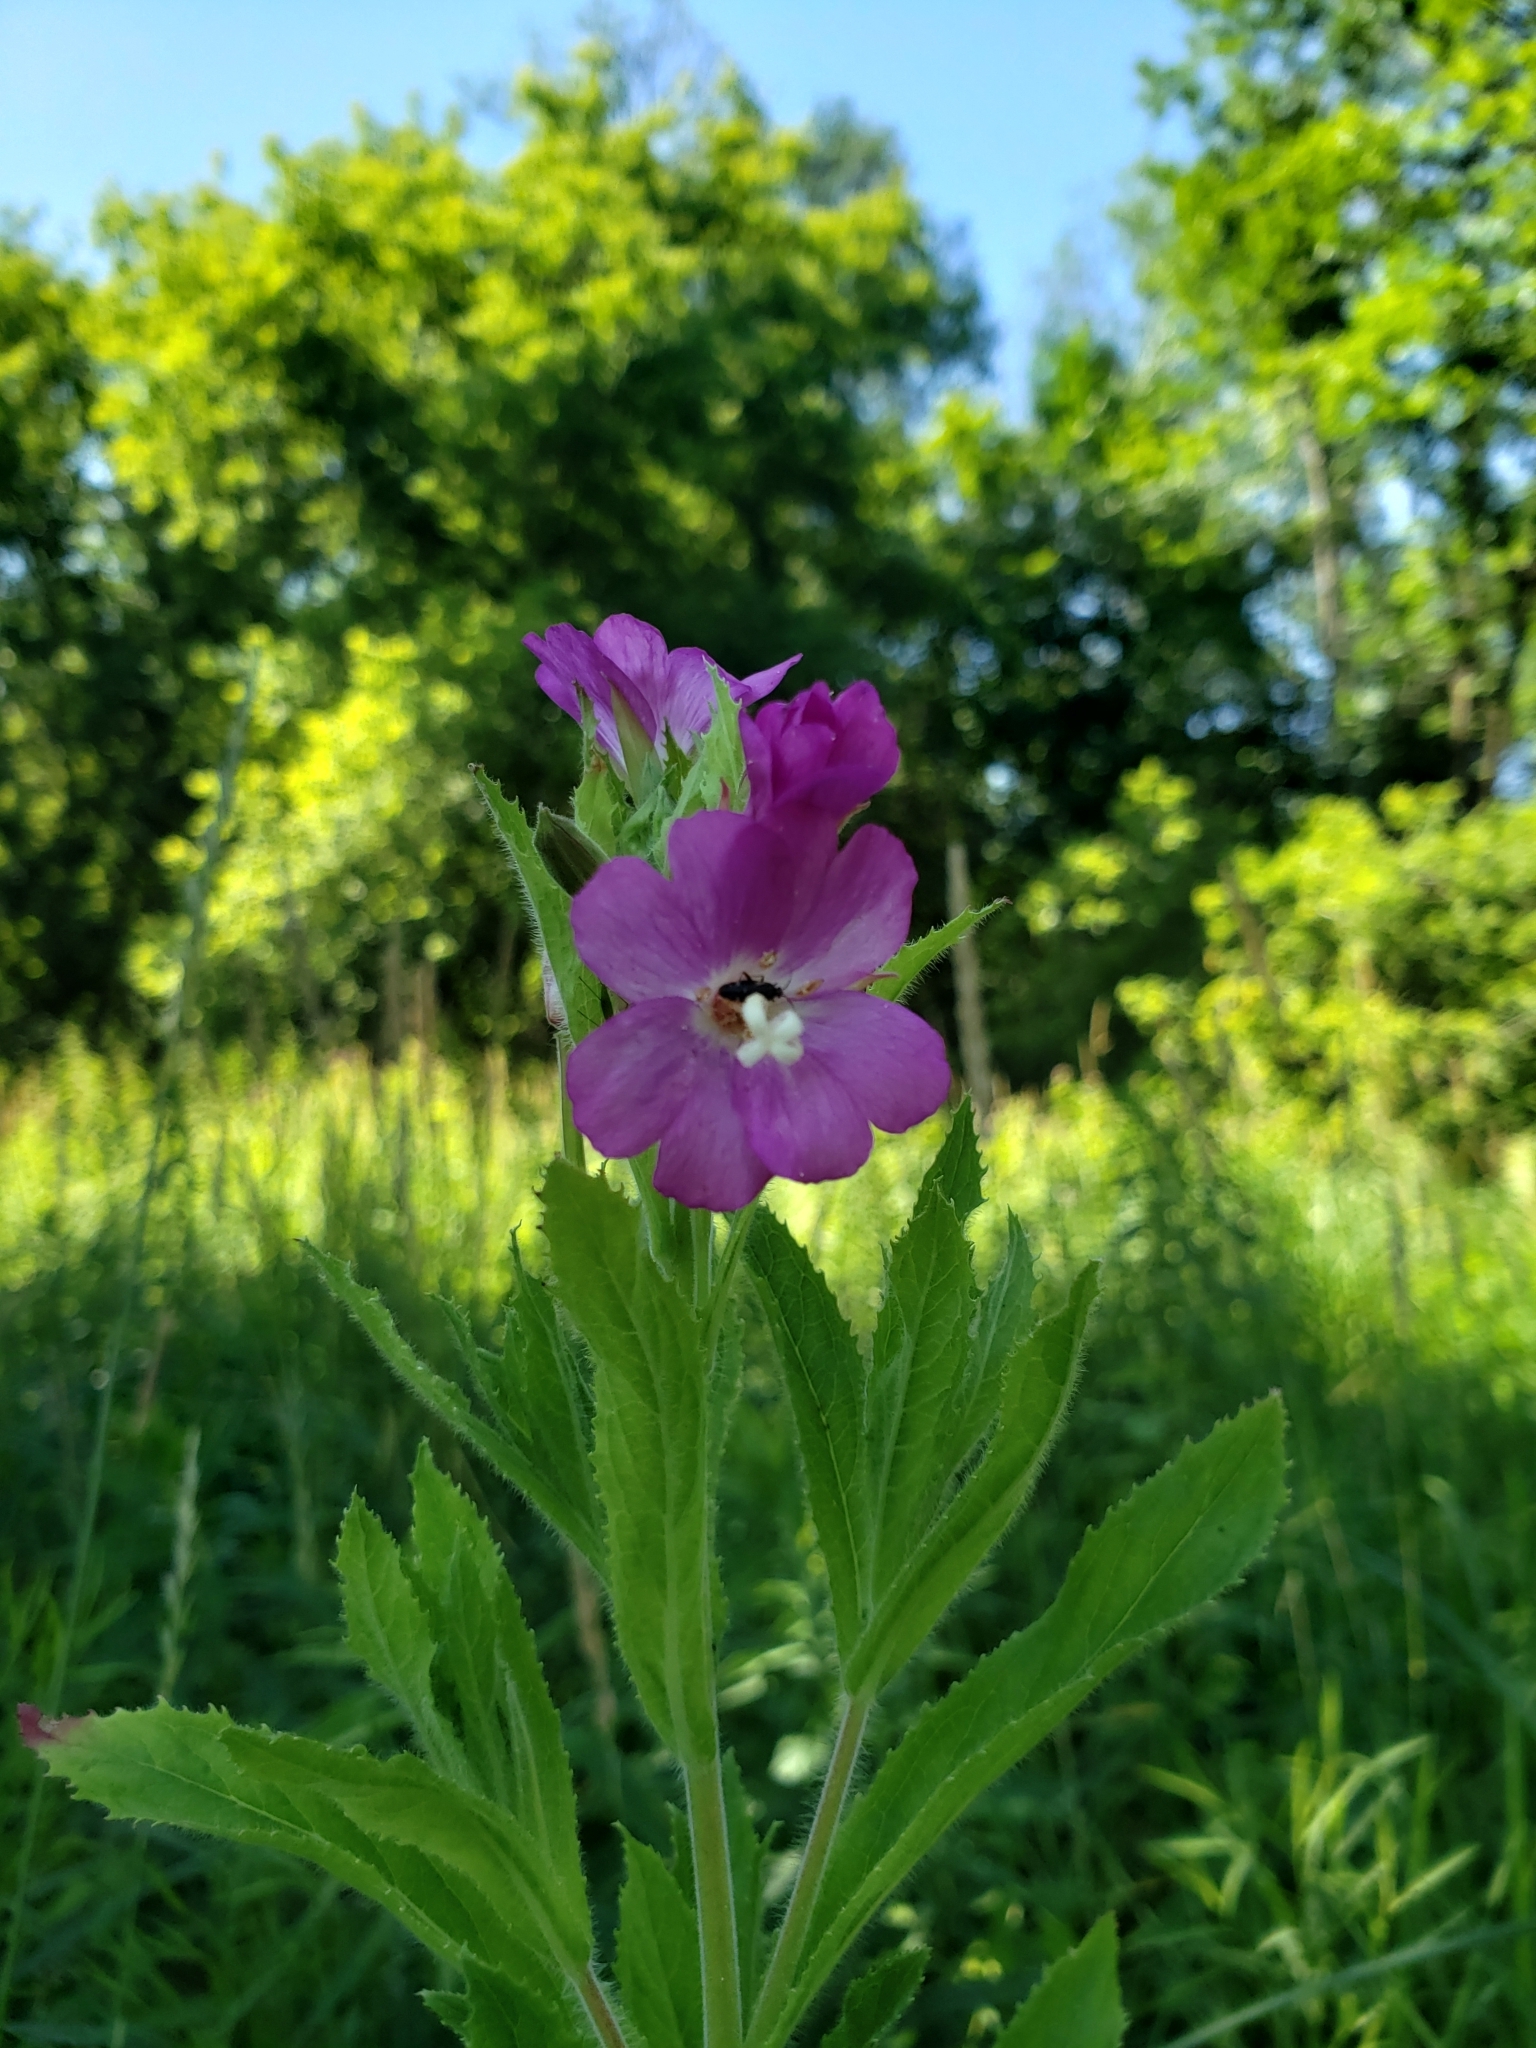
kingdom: Plantae
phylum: Tracheophyta
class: Magnoliopsida
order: Myrtales
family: Onagraceae
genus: Epilobium
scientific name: Epilobium hirsutum
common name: Great willowherb
